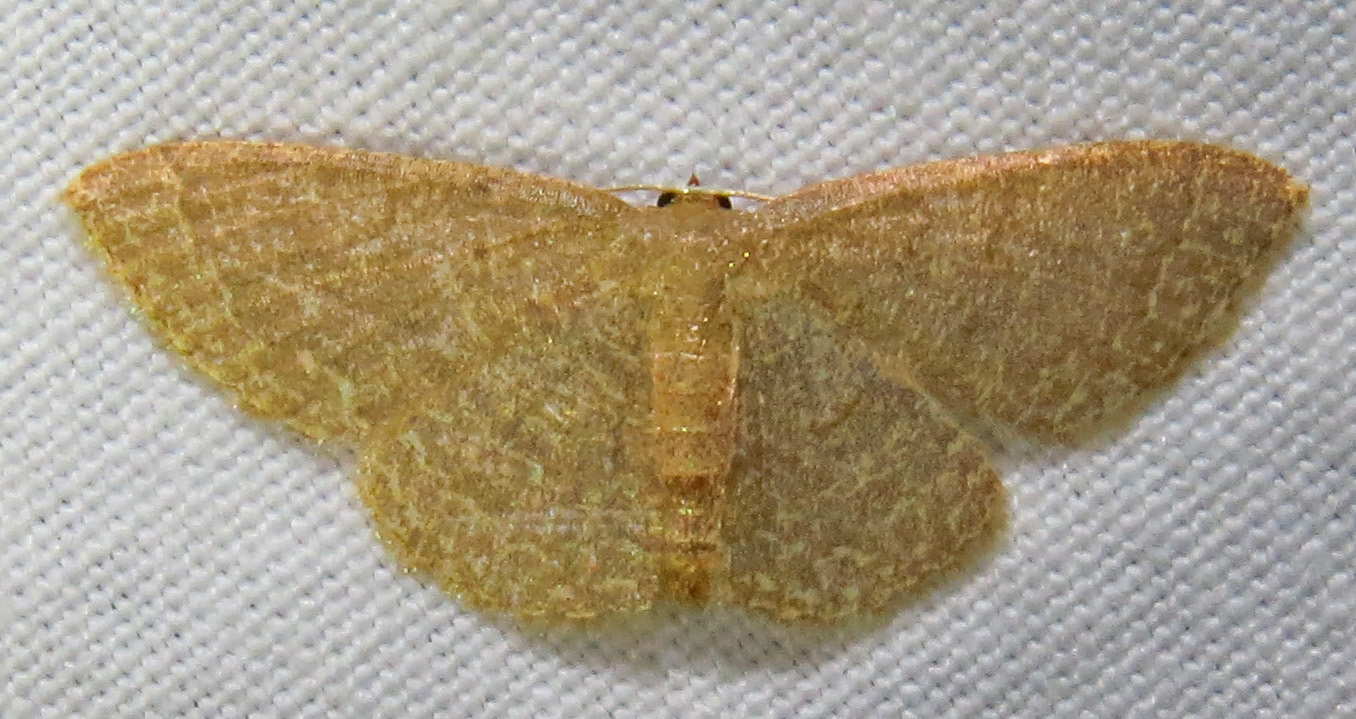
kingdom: Animalia
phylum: Arthropoda
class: Insecta
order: Lepidoptera
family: Geometridae
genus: Pleuroprucha
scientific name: Pleuroprucha insulsaria
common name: Common tan wave
